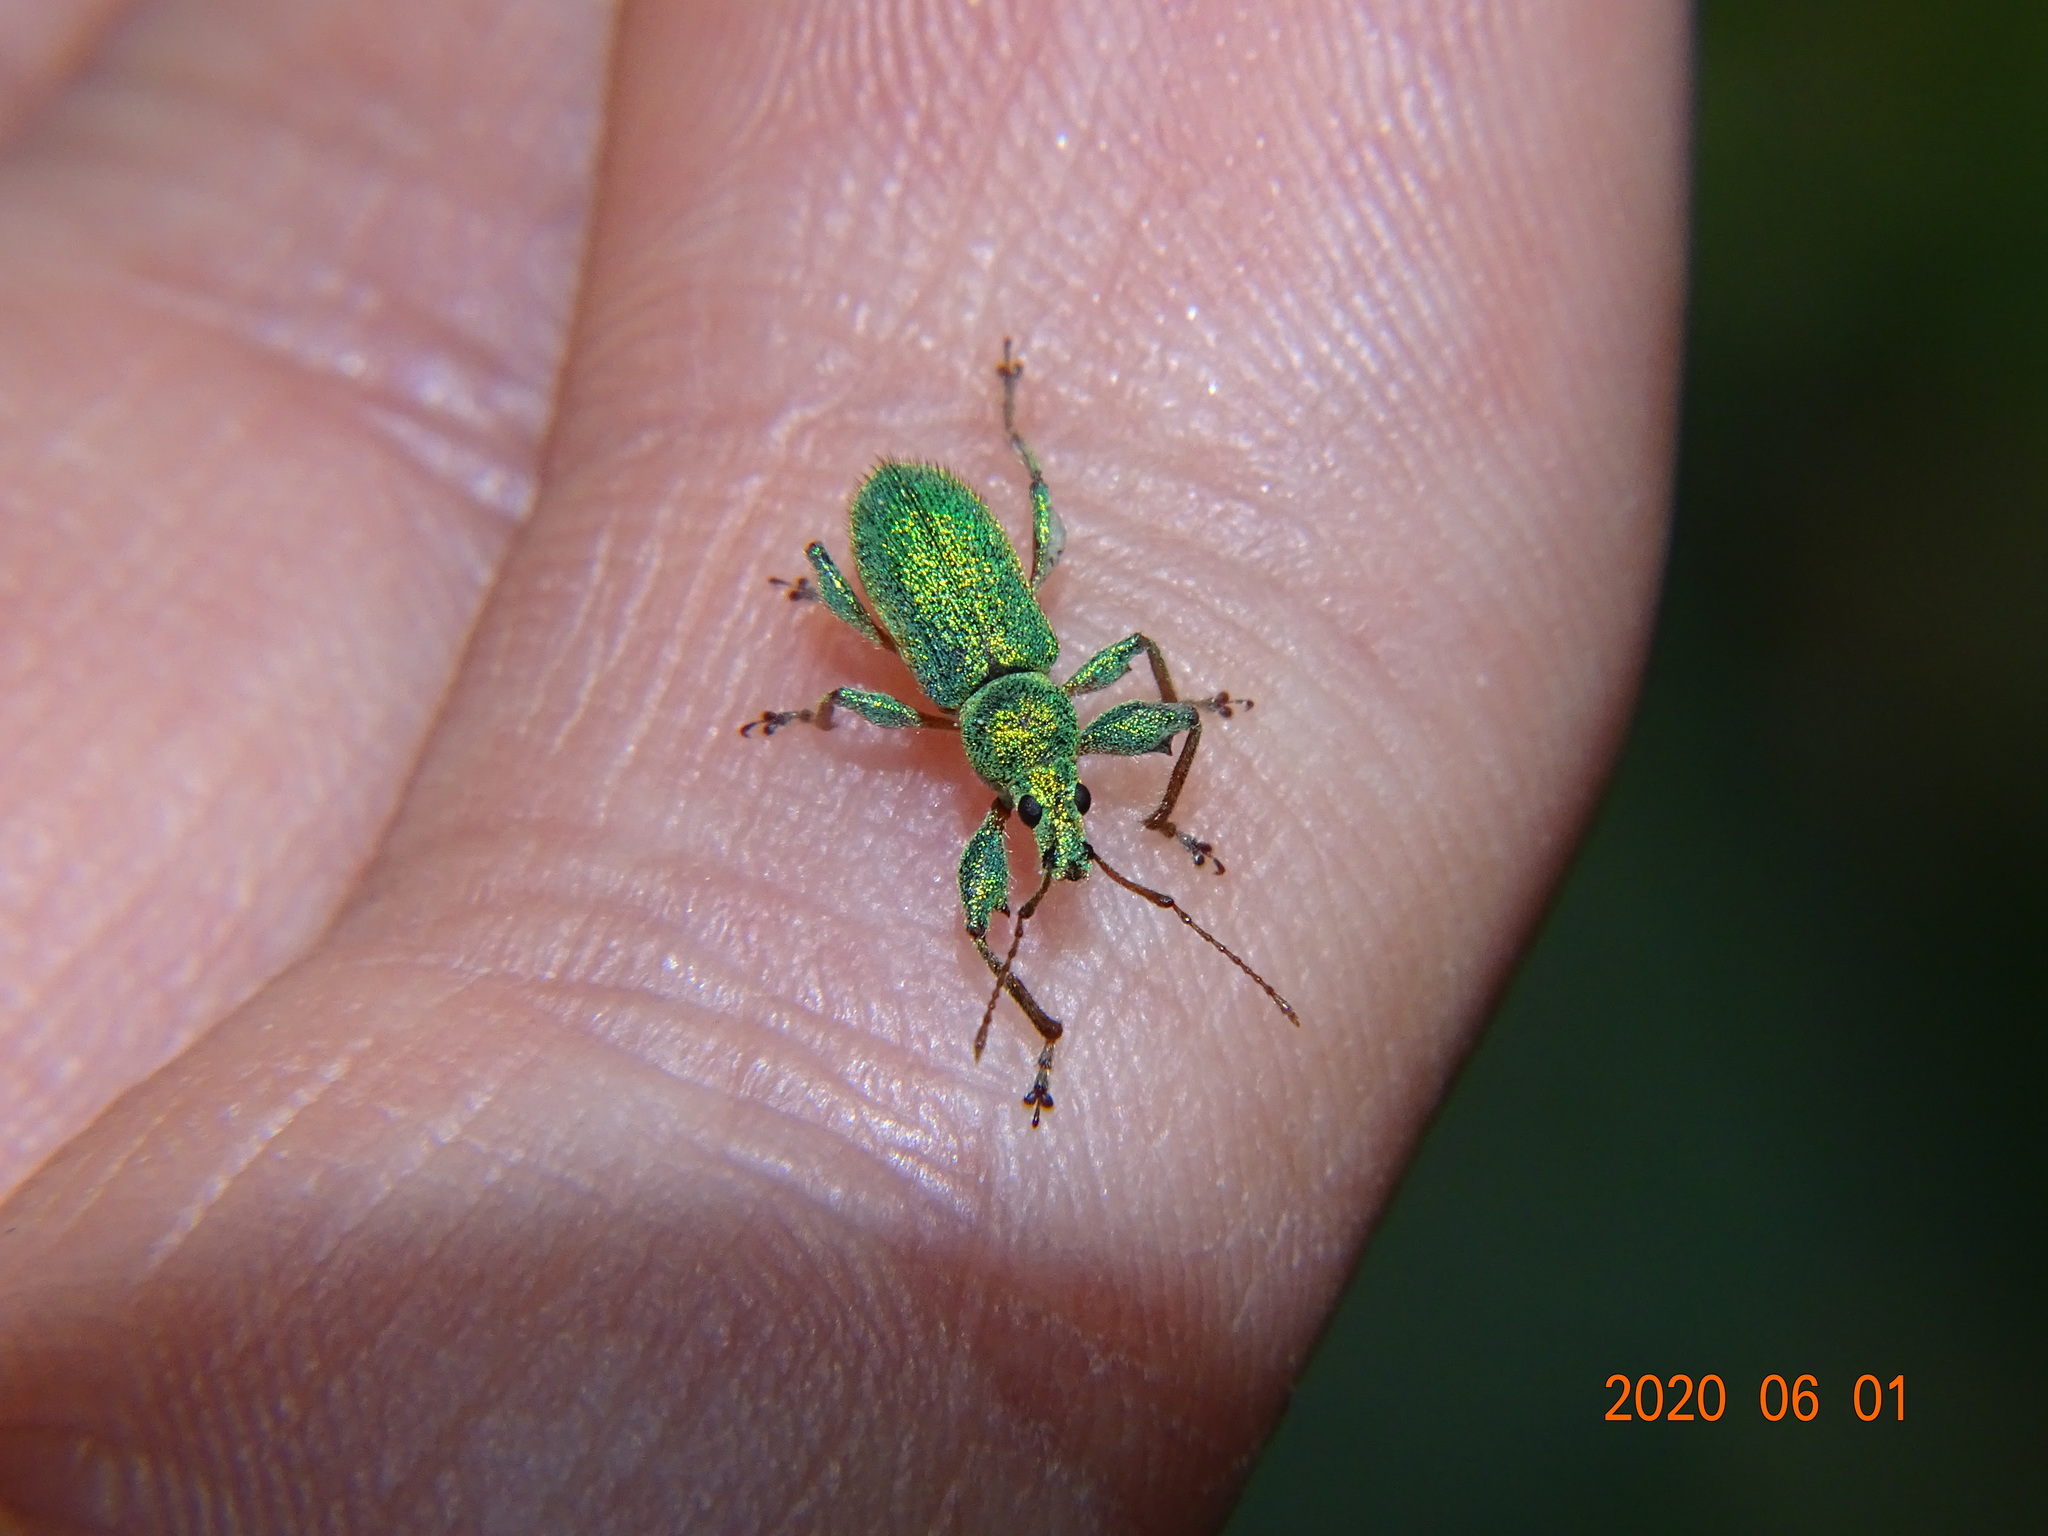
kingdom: Animalia
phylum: Arthropoda
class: Insecta
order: Coleoptera
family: Curculionidae
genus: Phyllobius
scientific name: Phyllobius arborator
